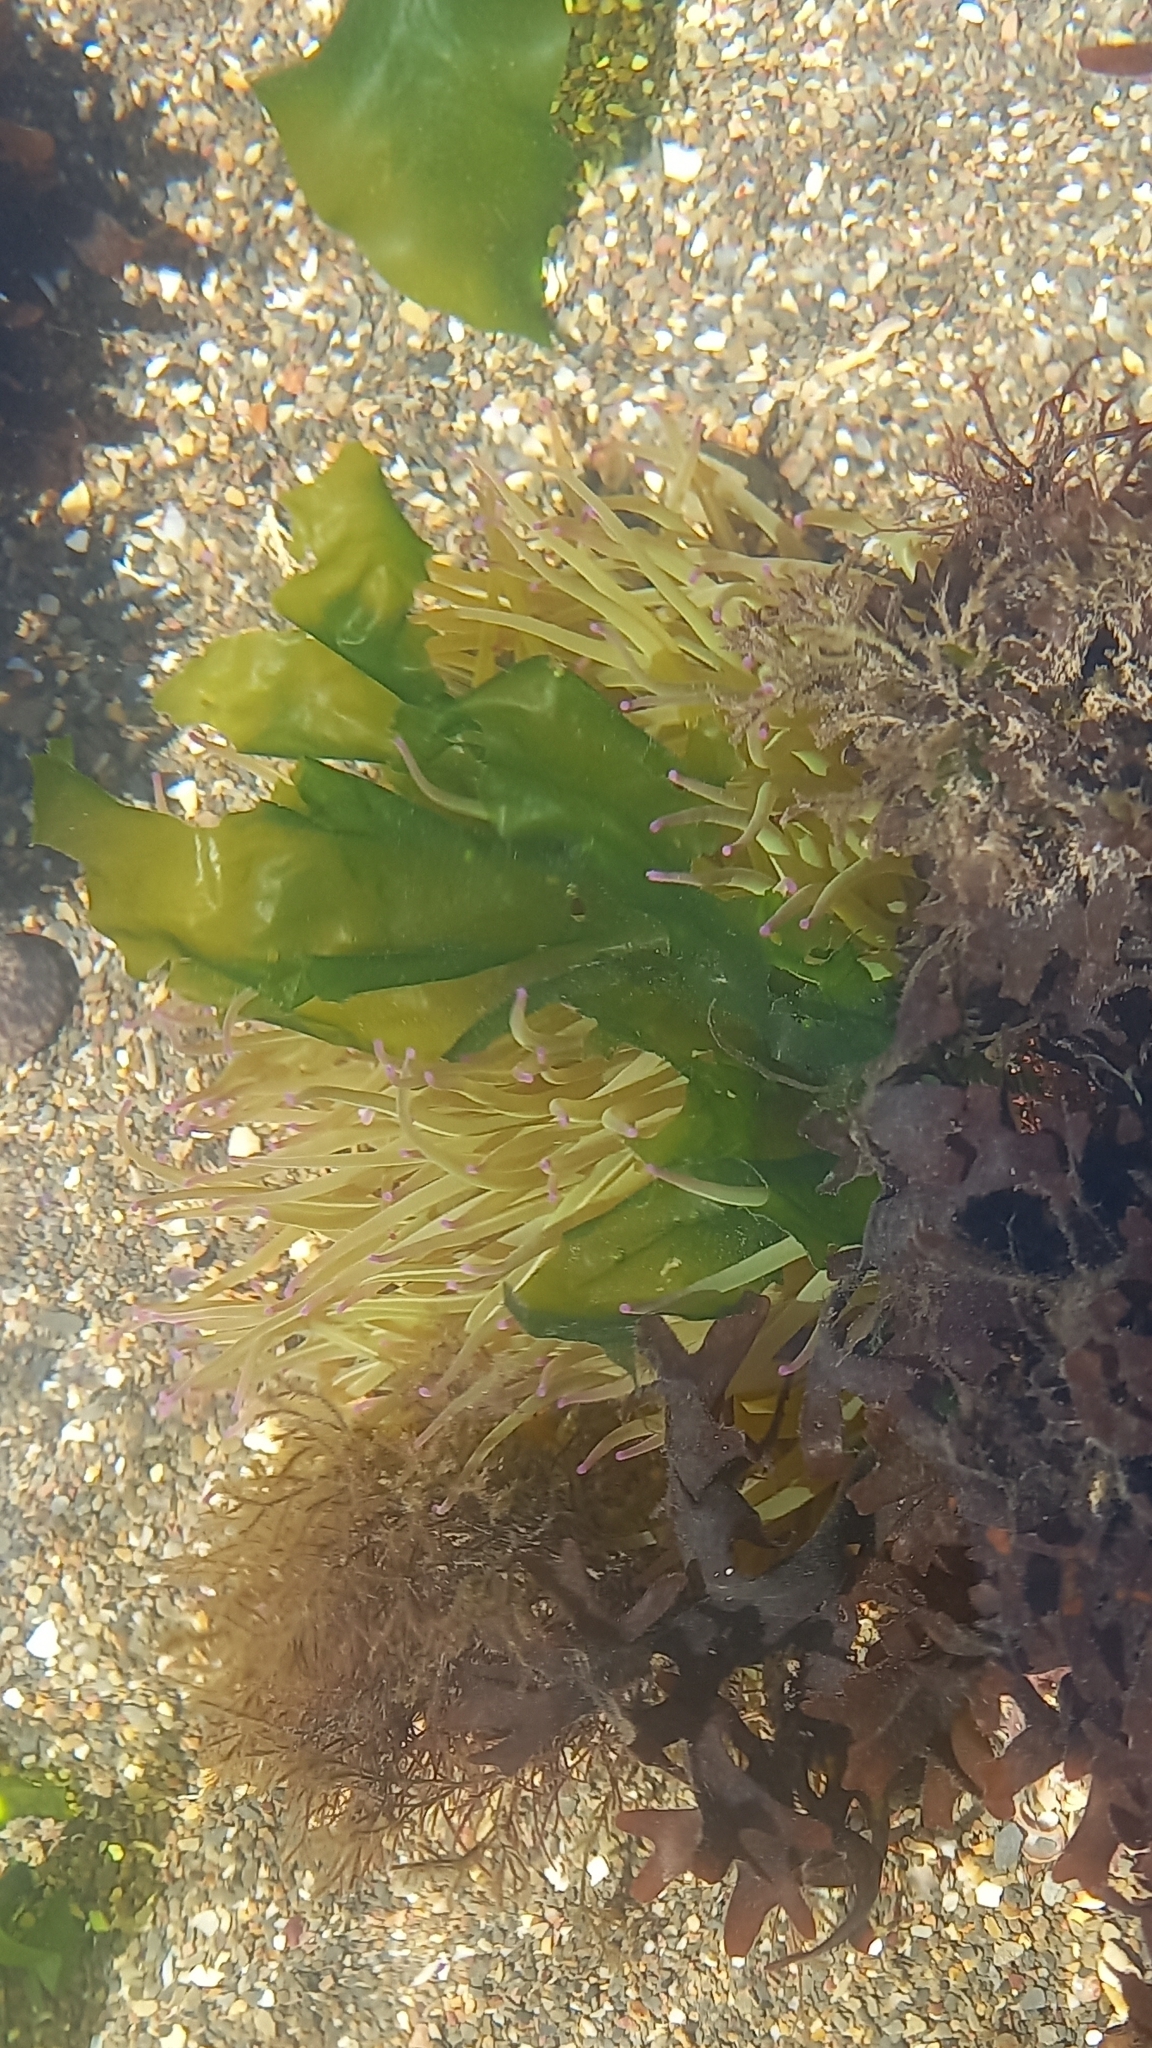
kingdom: Animalia
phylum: Cnidaria
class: Anthozoa
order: Actiniaria
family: Actiniidae
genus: Anemonia
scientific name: Anemonia viridis
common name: Snakelocks anemone
